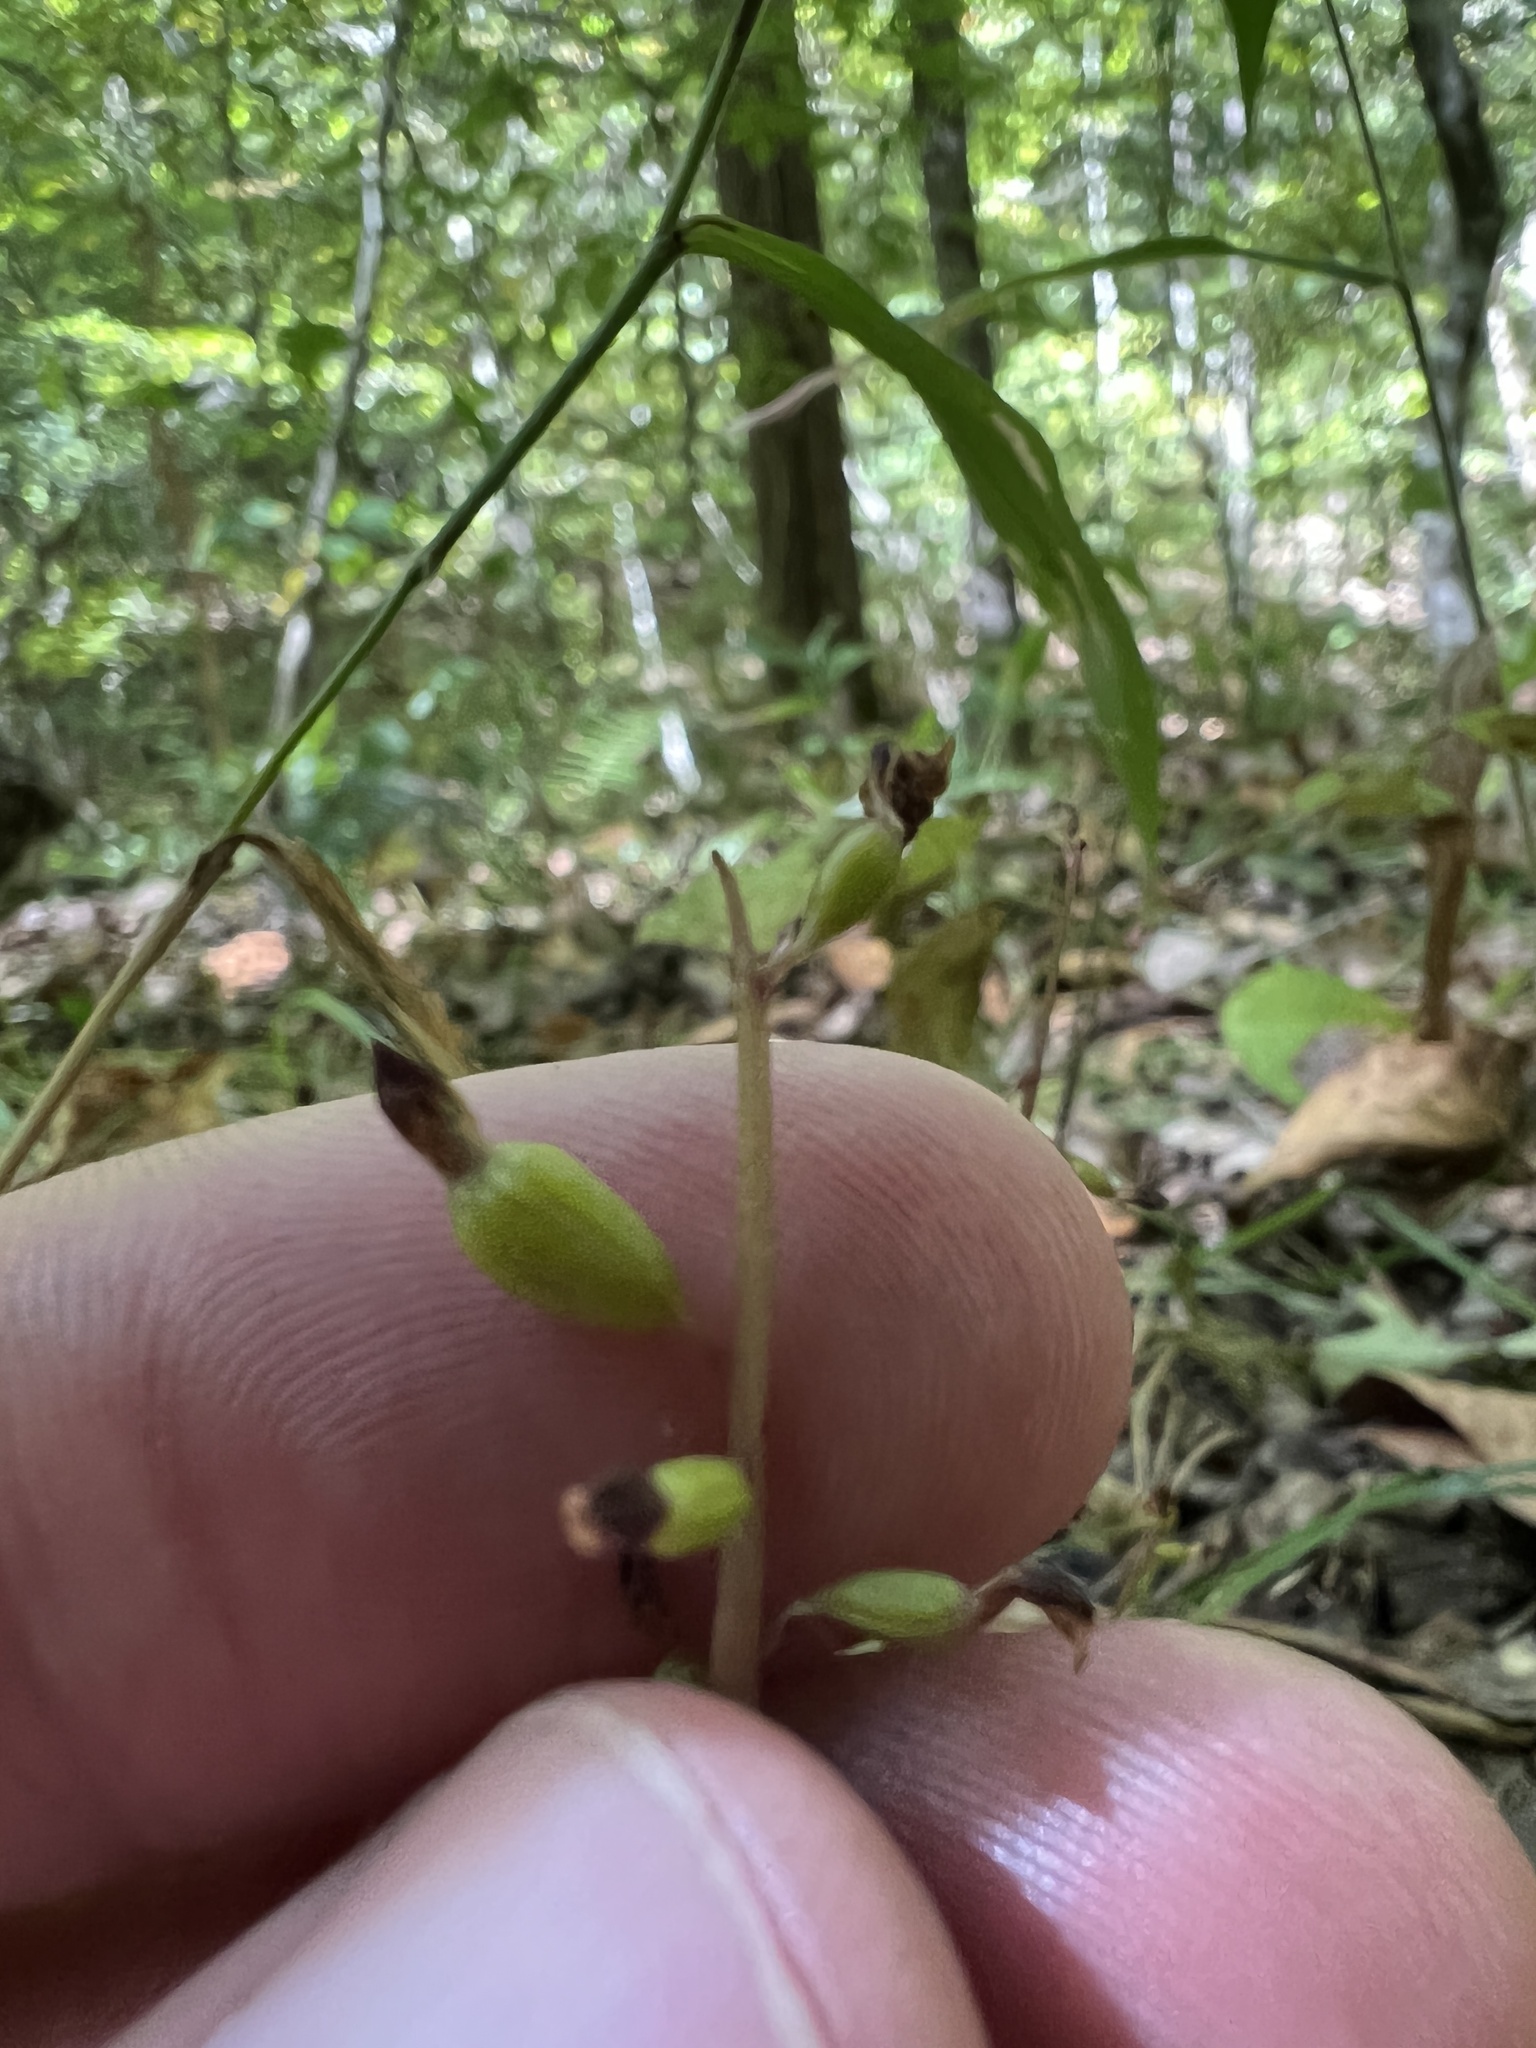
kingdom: Plantae
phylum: Tracheophyta
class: Liliopsida
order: Asparagales
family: Orchidaceae
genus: Corallorhiza
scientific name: Corallorhiza odontorhiza
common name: Autumn coralroot
